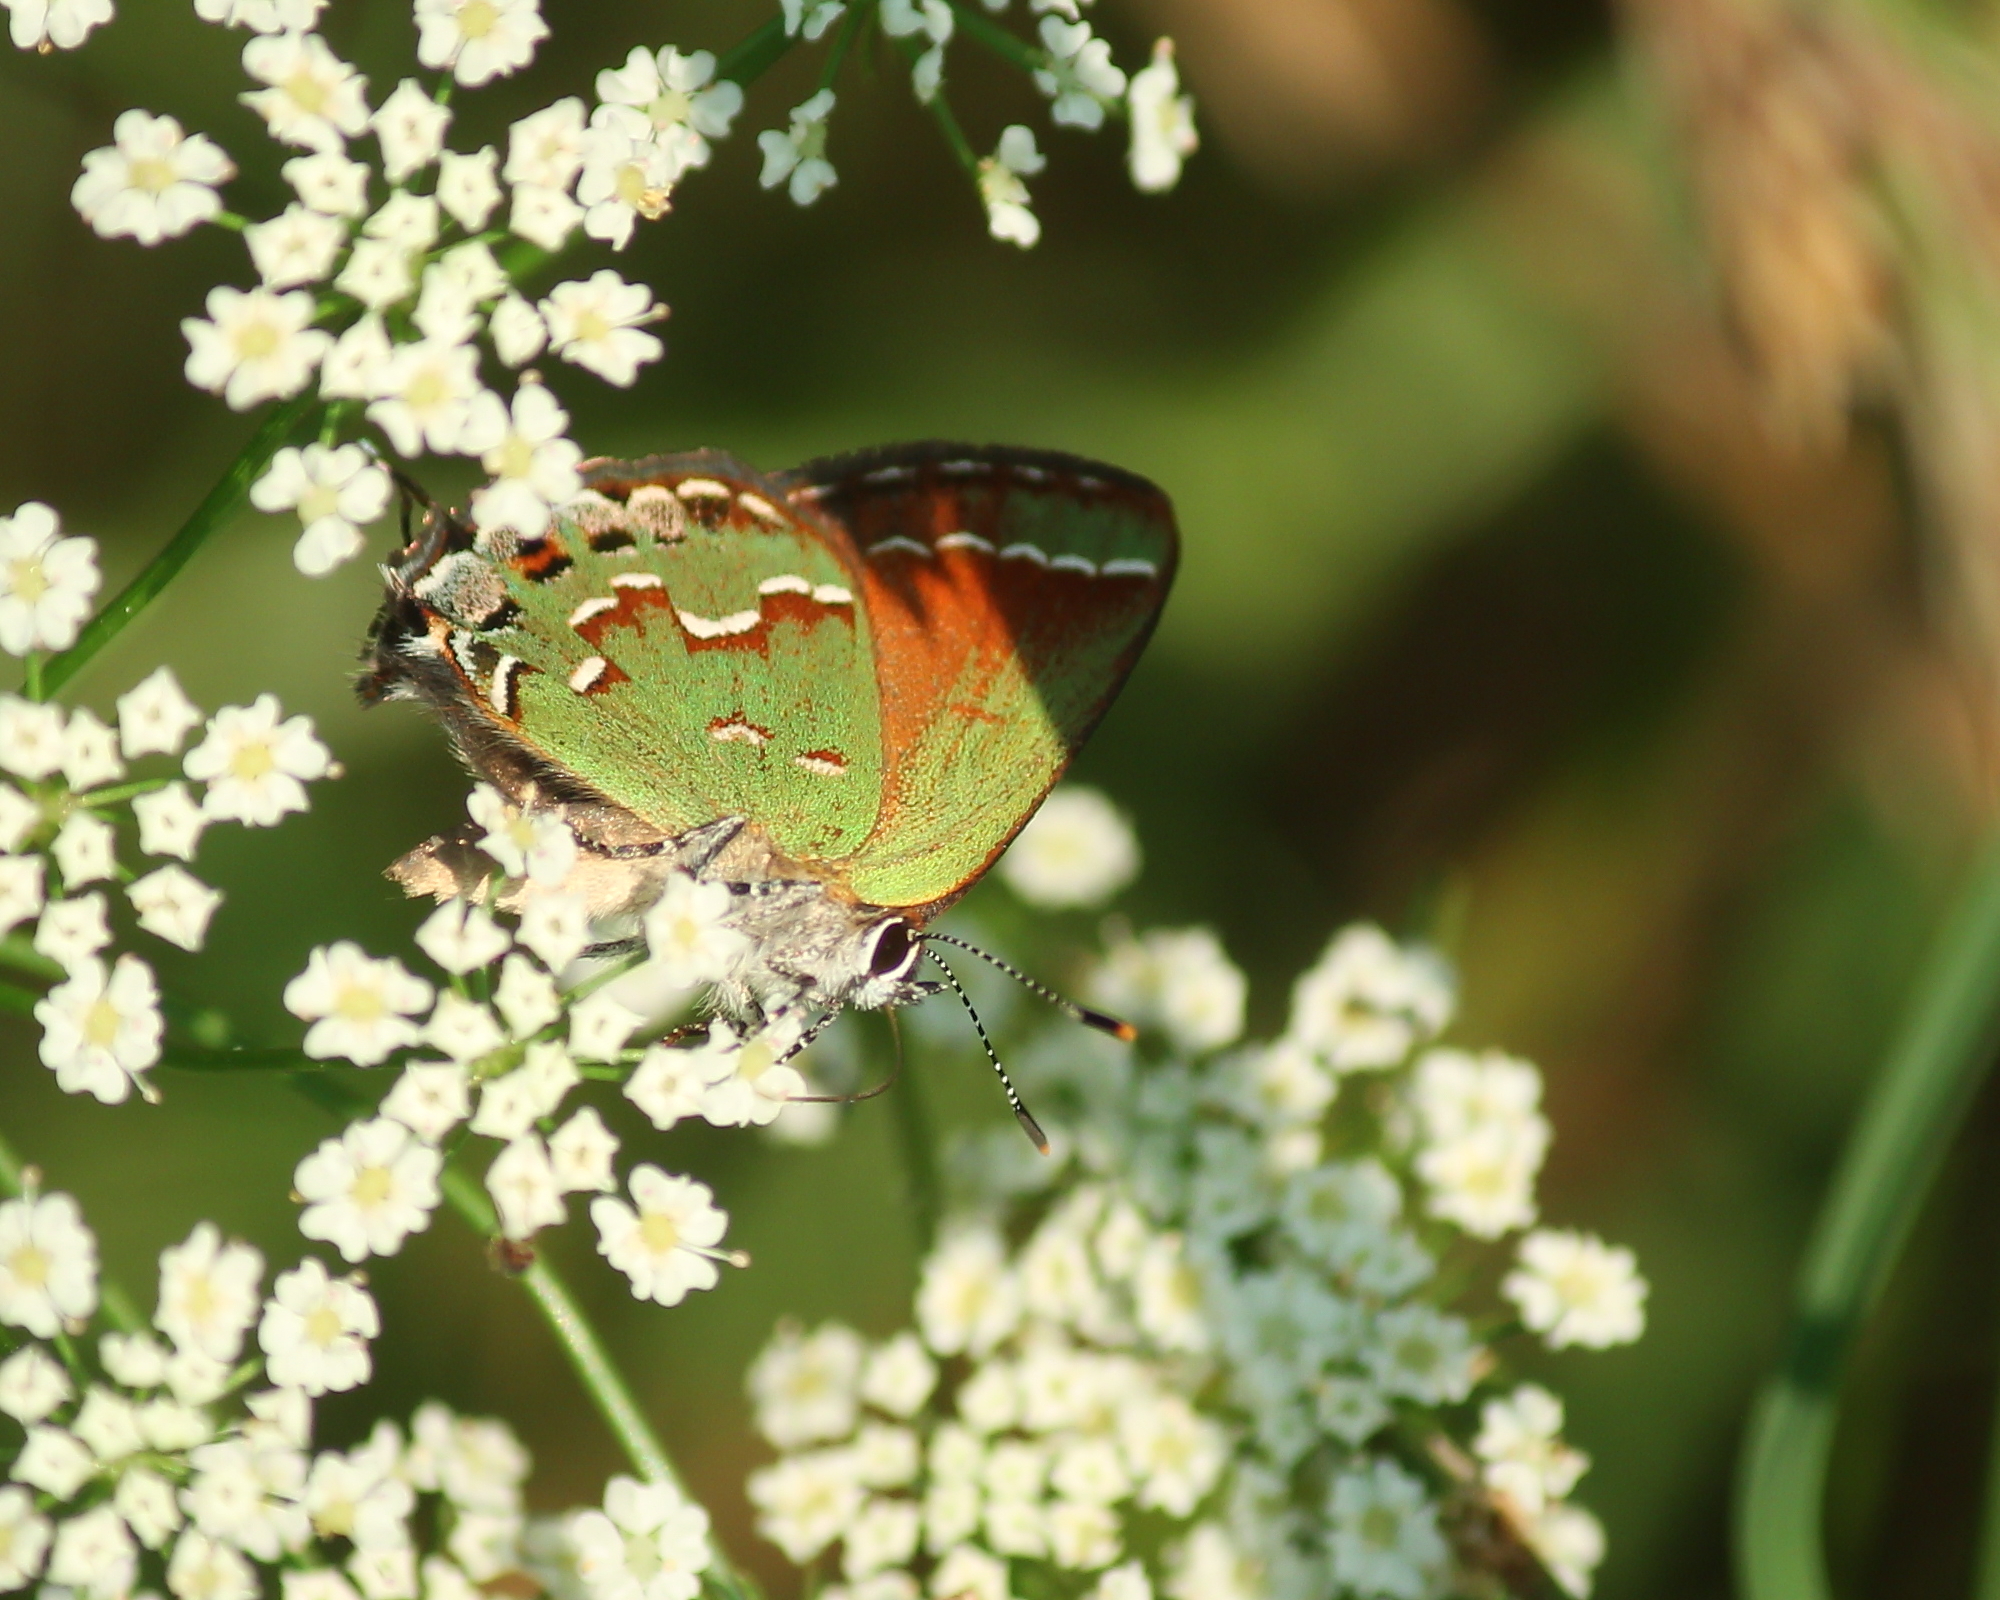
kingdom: Animalia
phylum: Arthropoda
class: Insecta
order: Lepidoptera
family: Lycaenidae
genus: Mitoura
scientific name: Mitoura gryneus
